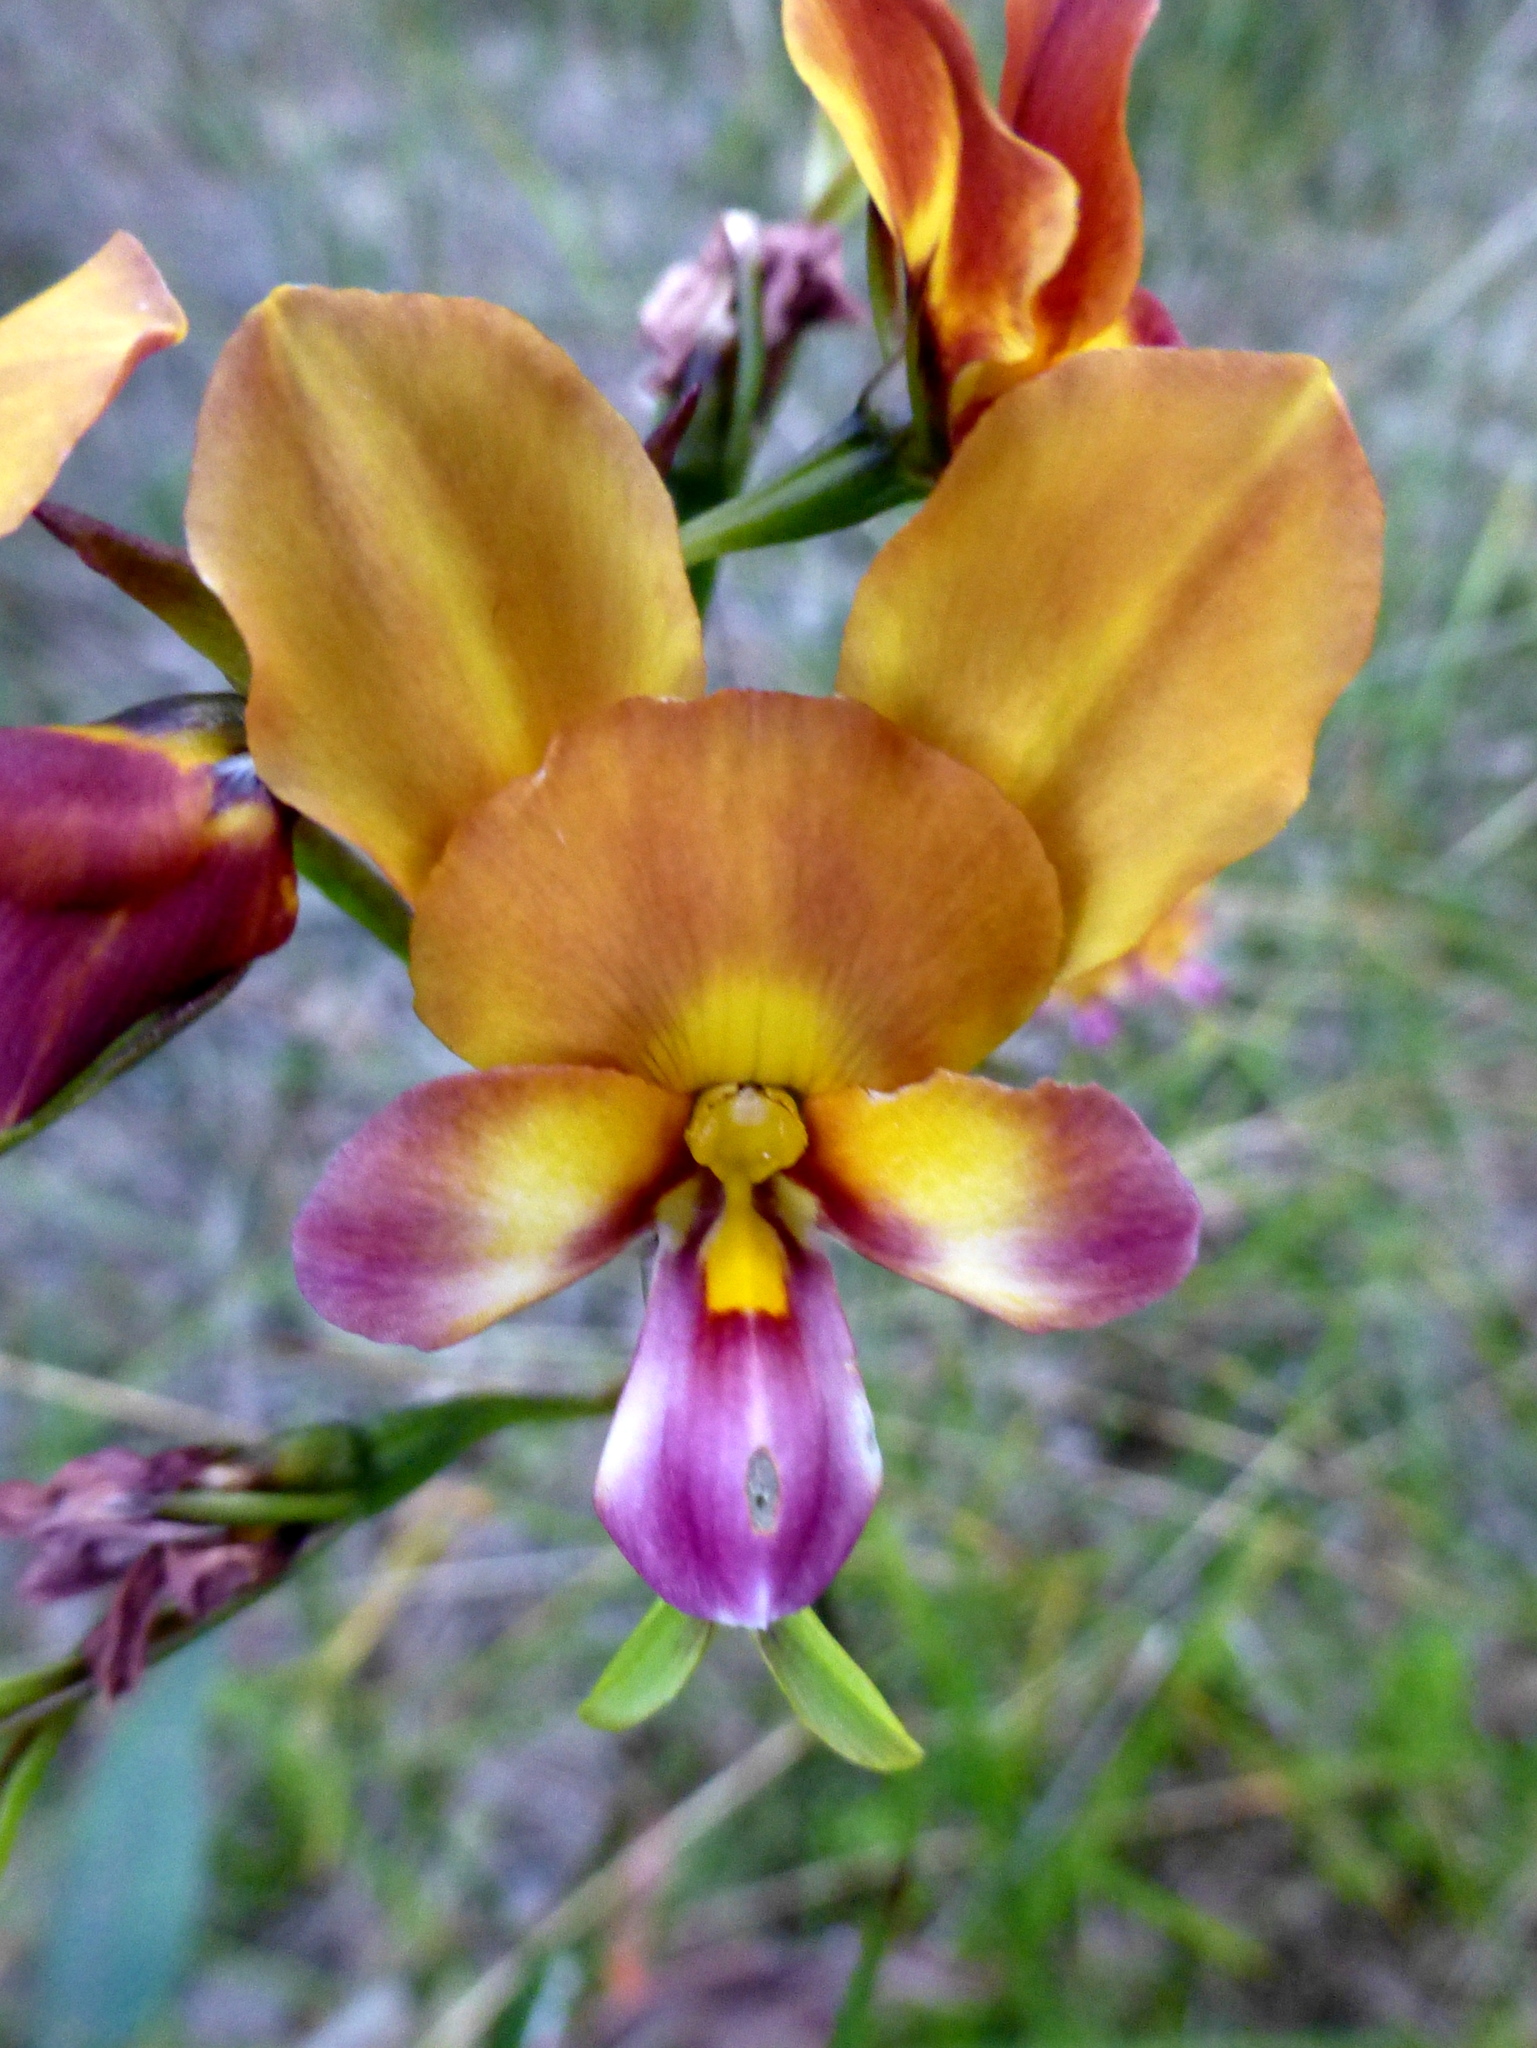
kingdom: Plantae
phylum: Tracheophyta
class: Liliopsida
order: Asparagales
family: Orchidaceae
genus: Diuris
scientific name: Diuris magnifica
